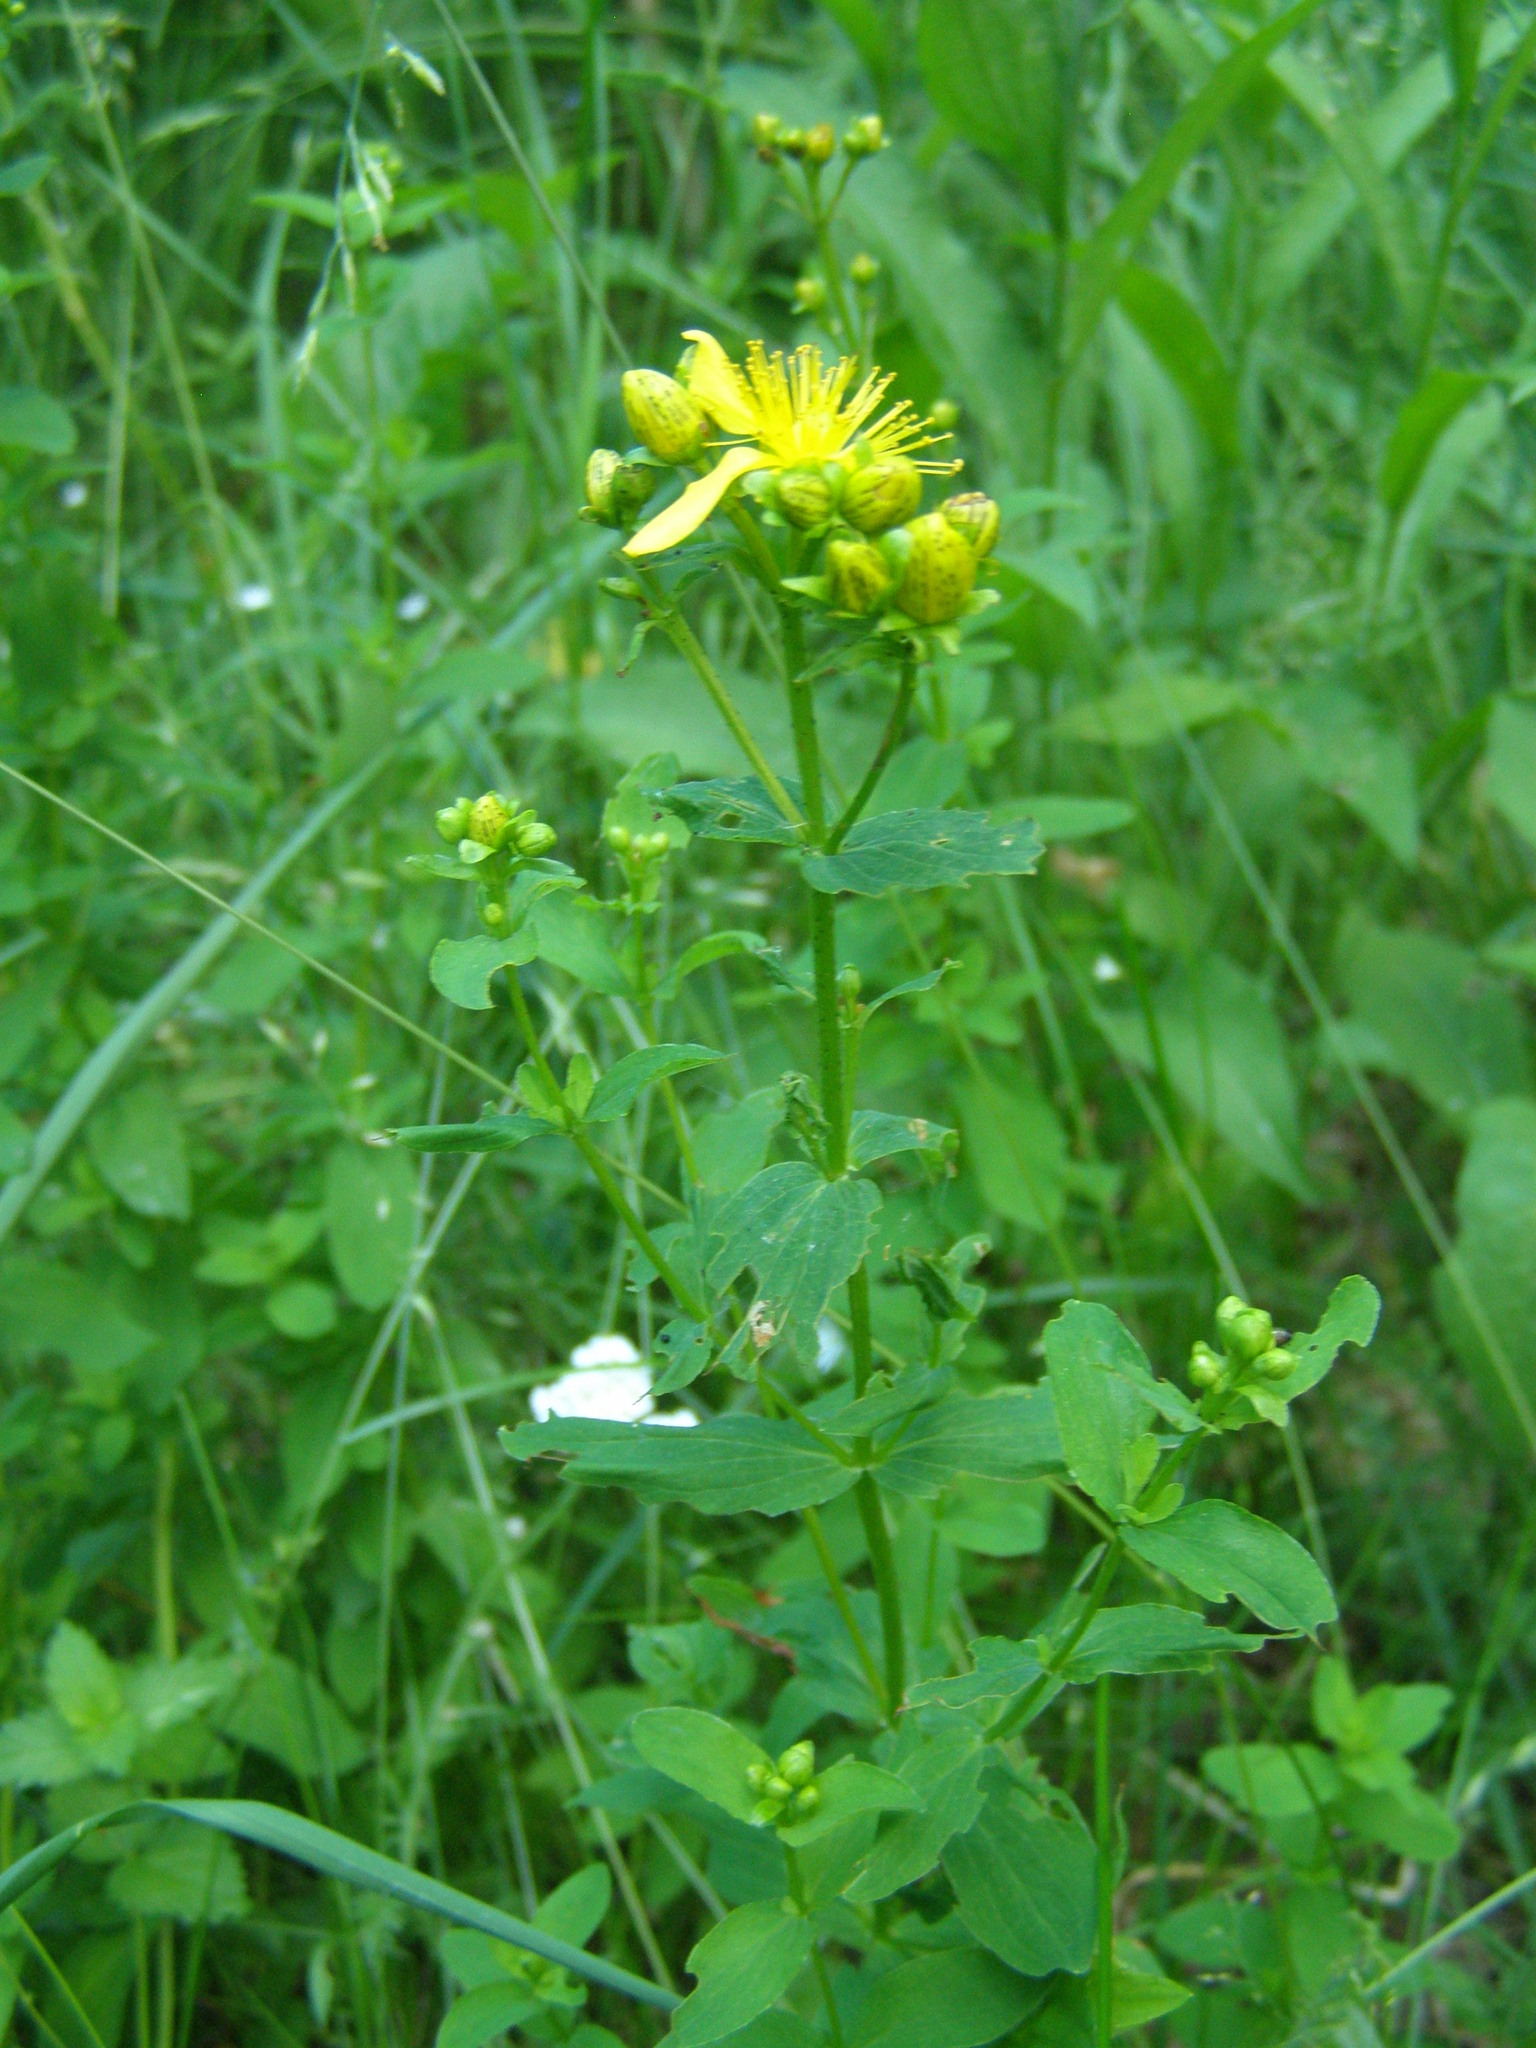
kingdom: Plantae
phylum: Tracheophyta
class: Magnoliopsida
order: Malpighiales
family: Hypericaceae
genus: Hypericum
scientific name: Hypericum maculatum
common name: Imperforate st. john's-wort
